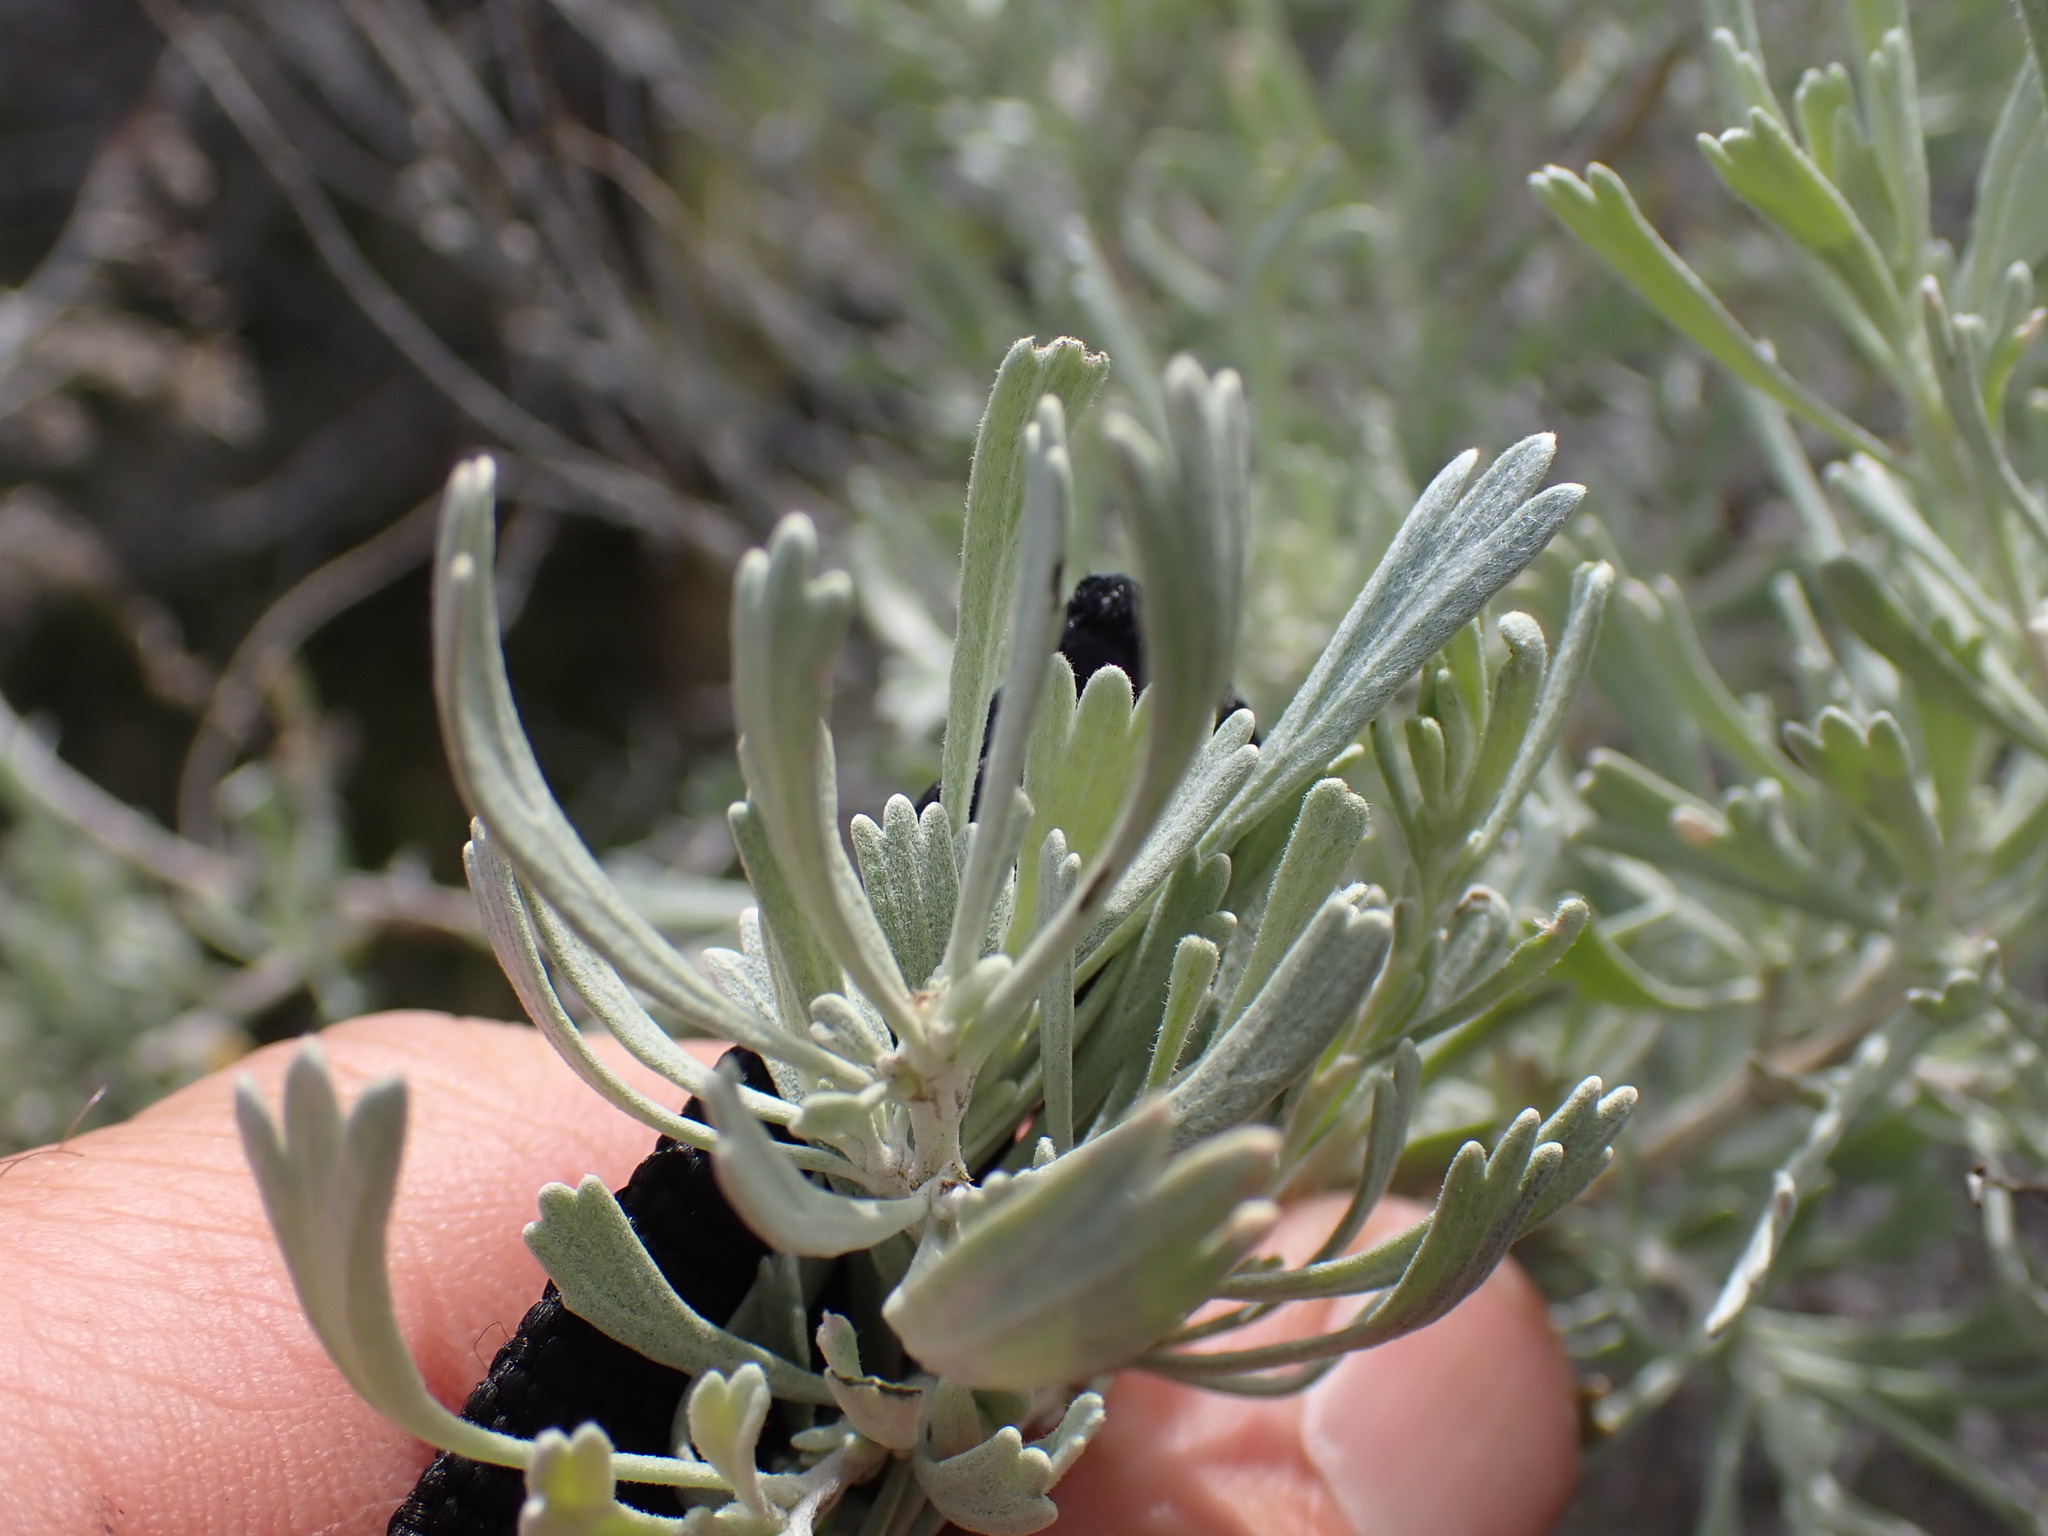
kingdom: Plantae
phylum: Tracheophyta
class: Magnoliopsida
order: Asterales
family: Asteraceae
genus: Artemisia
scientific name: Artemisia tridentata
